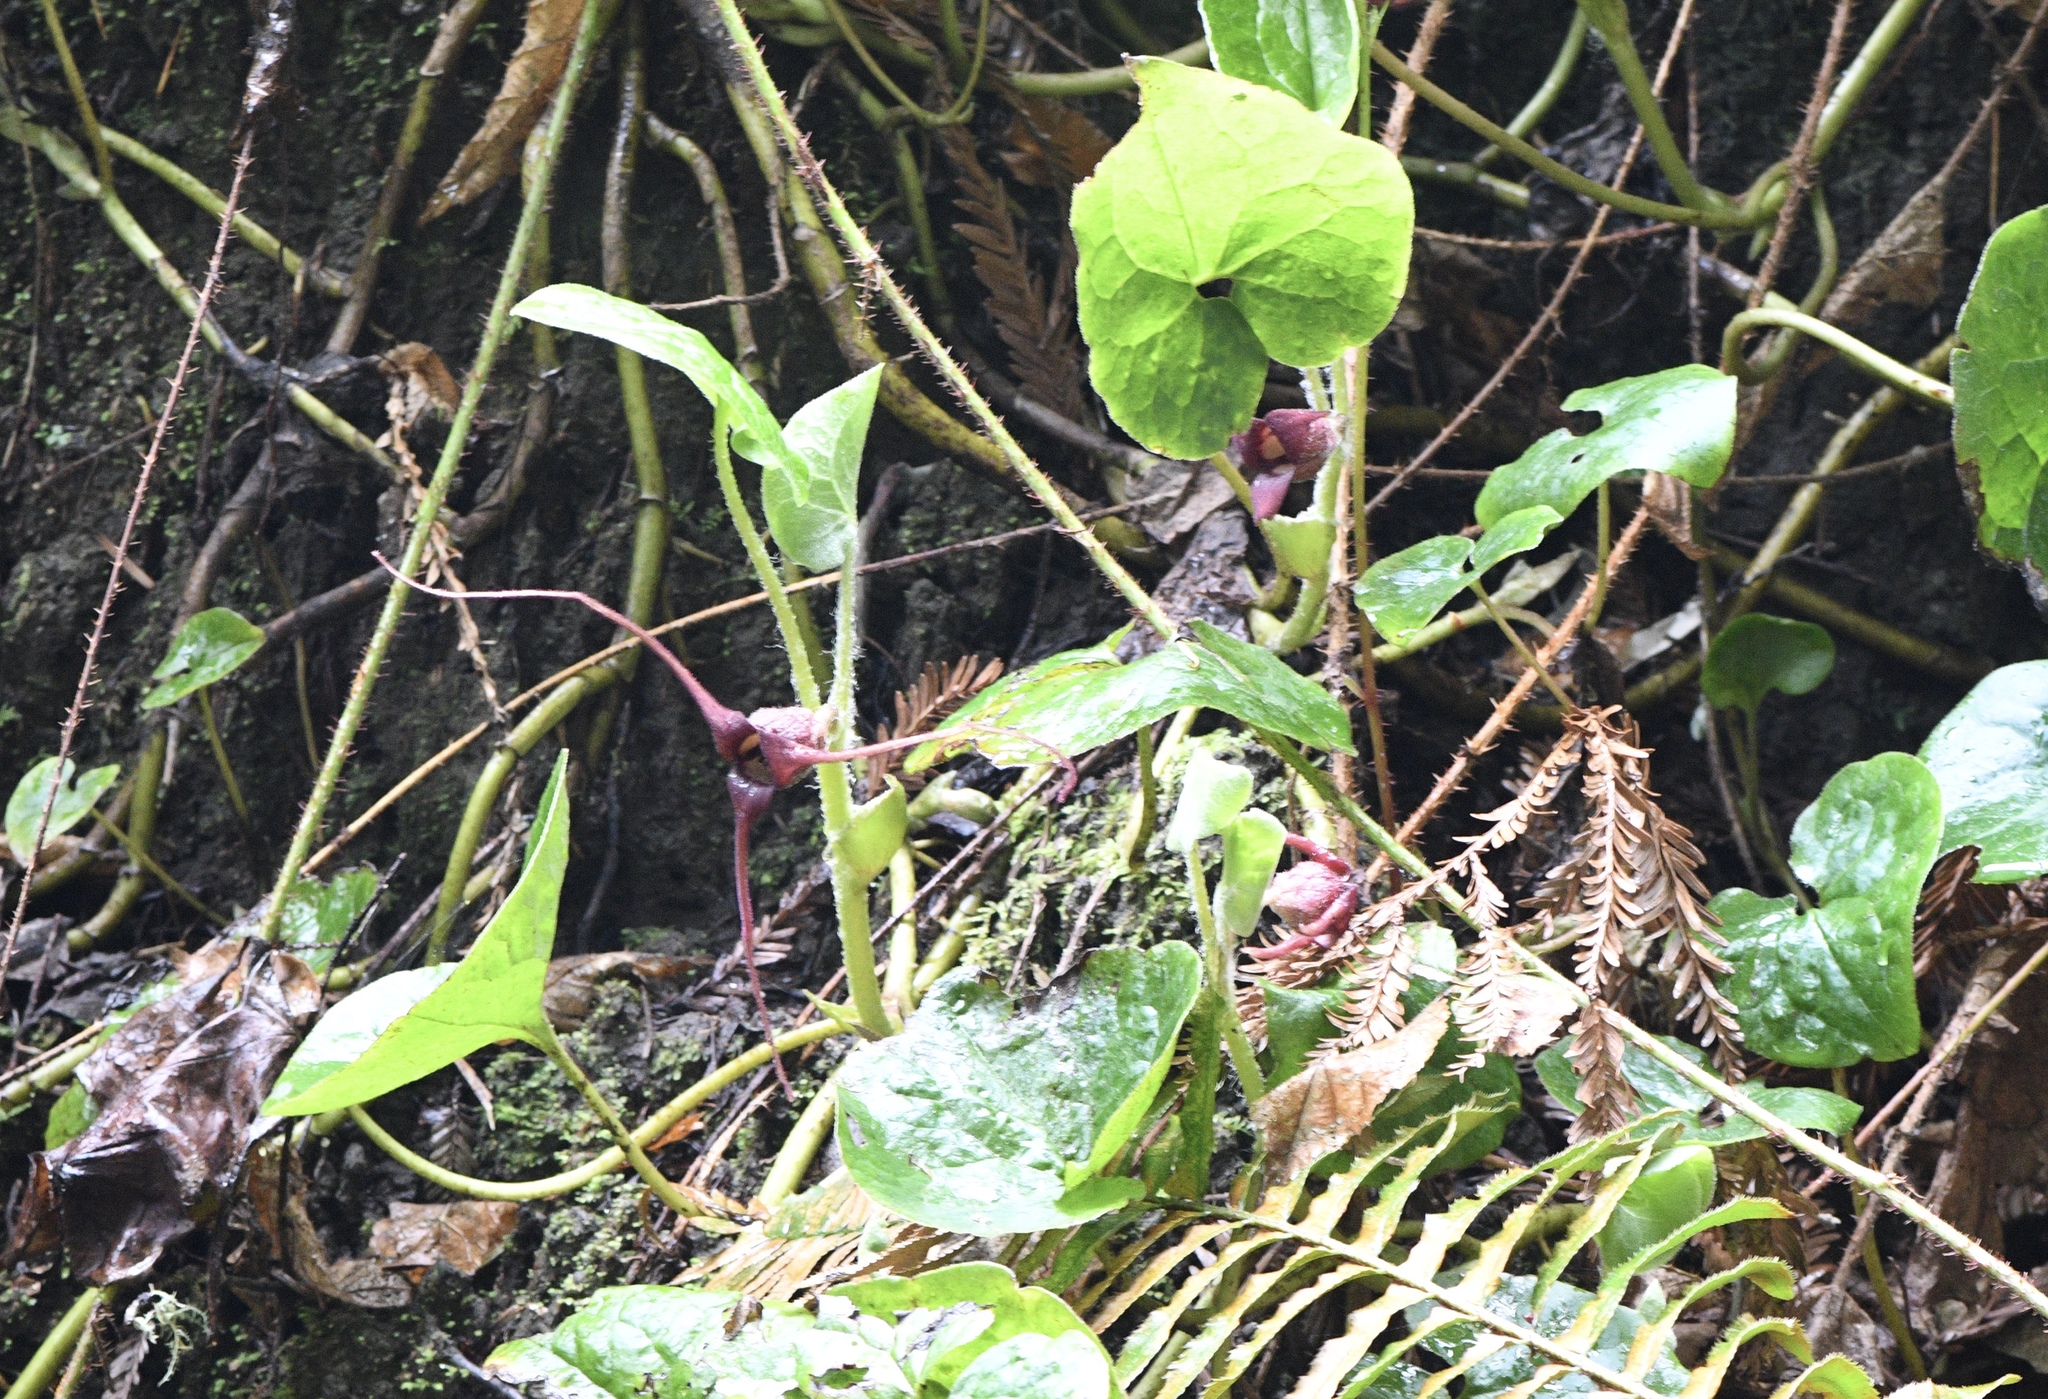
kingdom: Plantae
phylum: Tracheophyta
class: Magnoliopsida
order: Piperales
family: Aristolochiaceae
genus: Asarum
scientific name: Asarum caudatum
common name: Wild ginger
